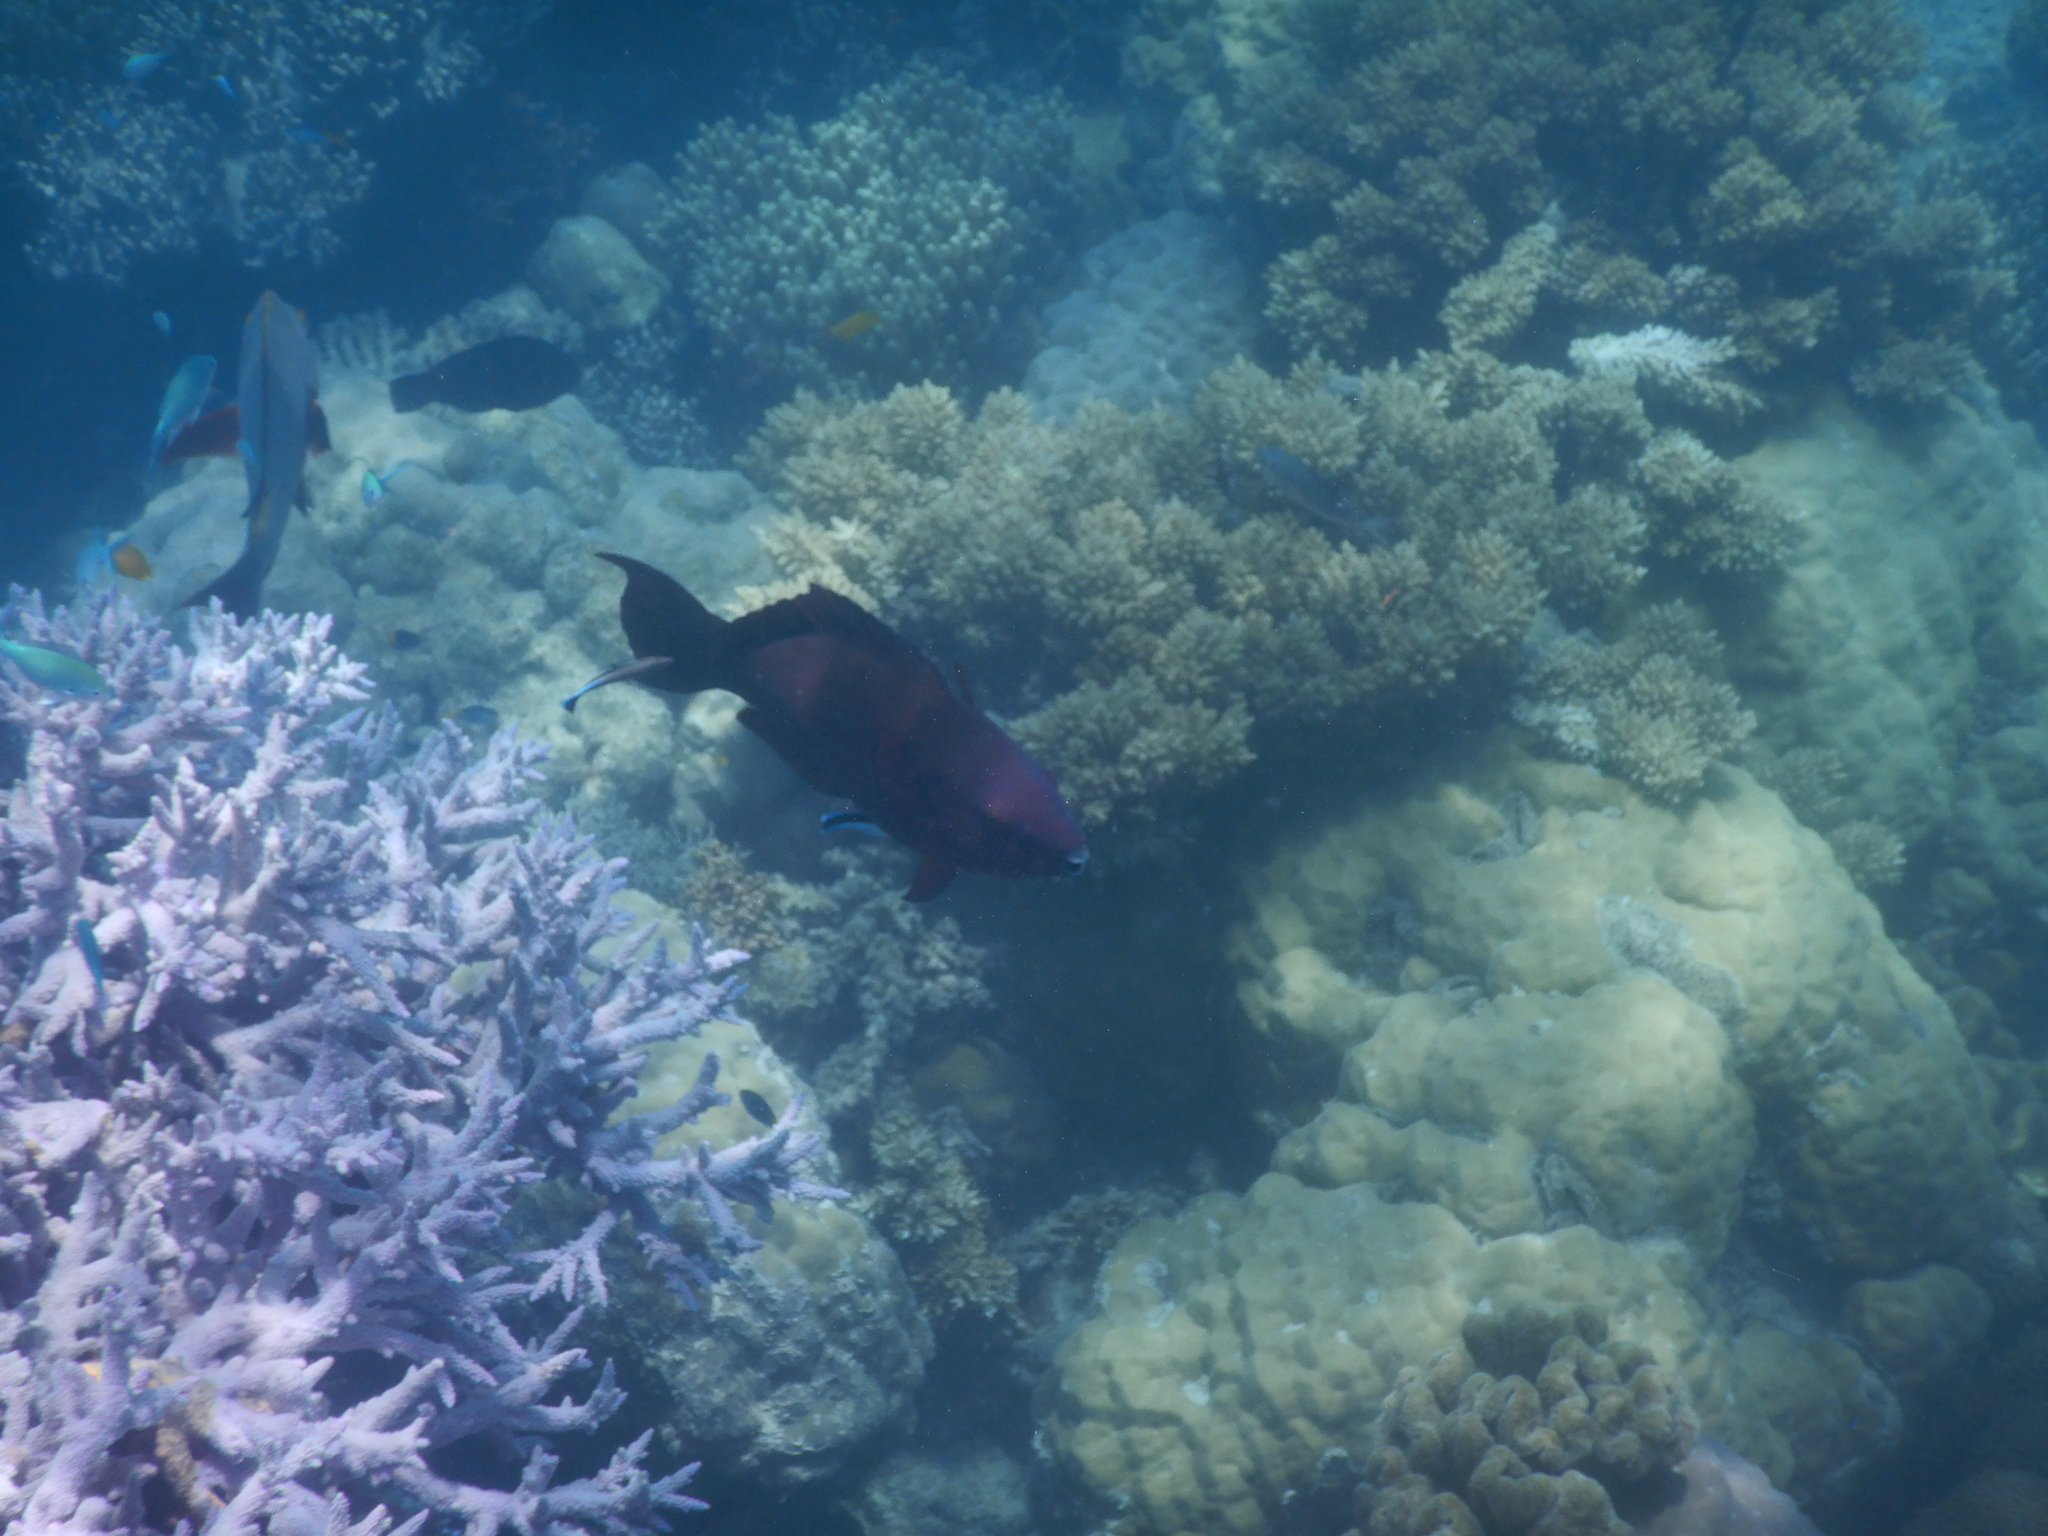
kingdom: Animalia
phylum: Chordata
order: Perciformes
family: Scaridae
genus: Scarus
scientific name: Scarus altipinnis
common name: Minifin parrotfish
